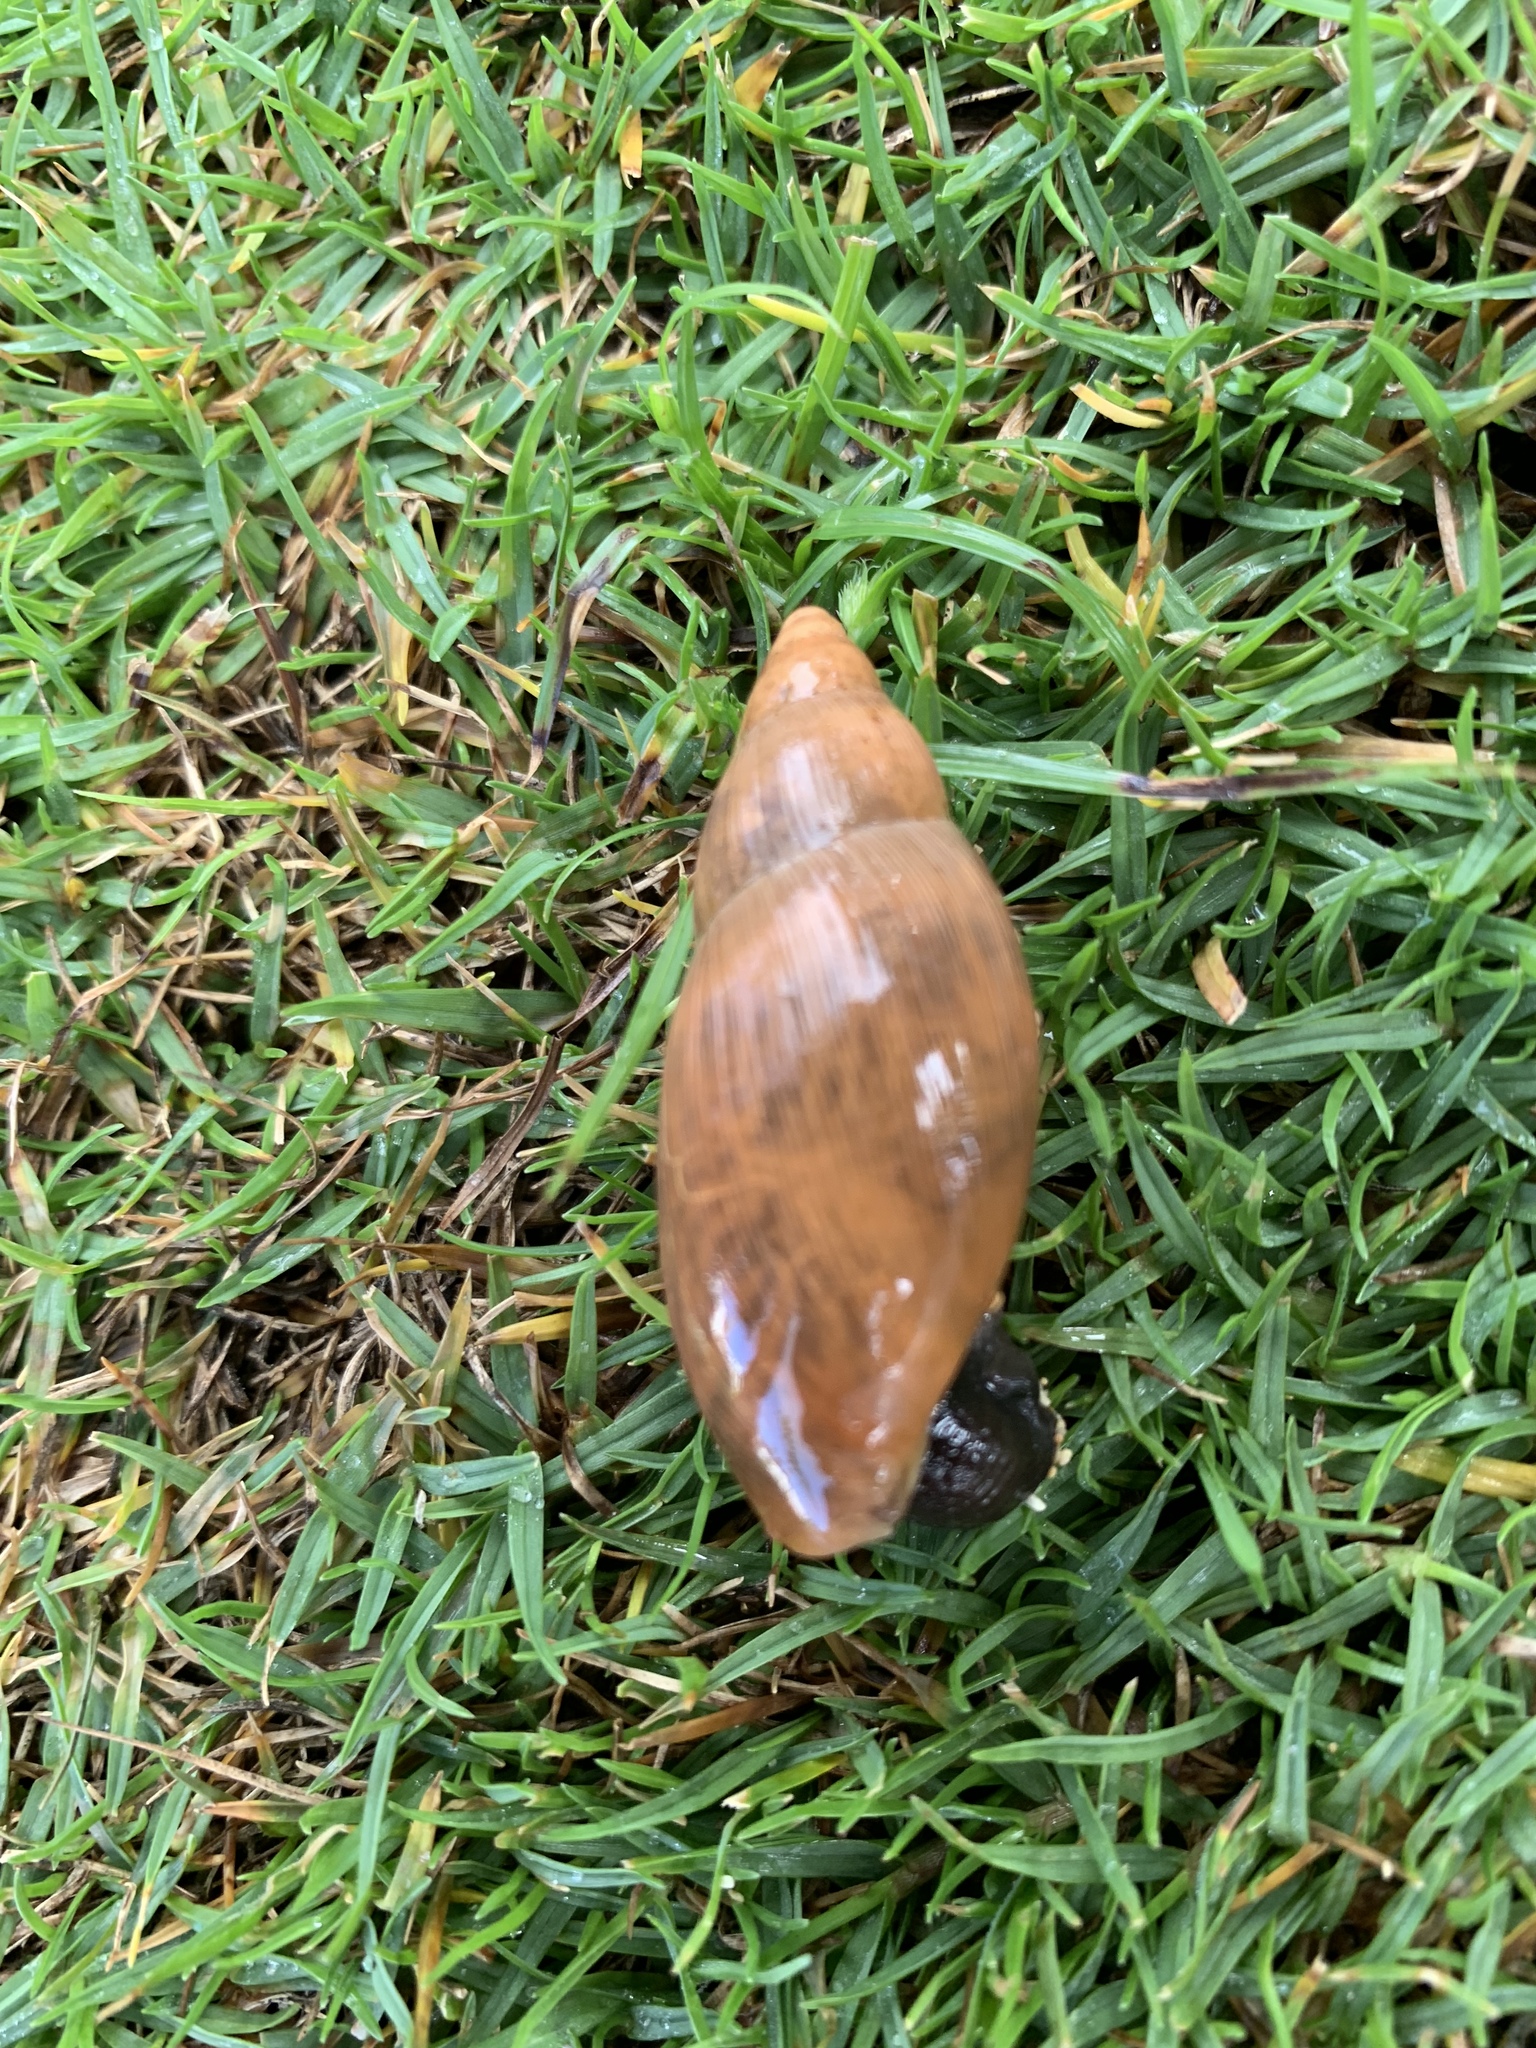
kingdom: Animalia
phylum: Mollusca
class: Gastropoda
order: Stylommatophora
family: Spiraxidae
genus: Euglandina
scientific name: Euglandina rosea
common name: Rosy wolfsnail
